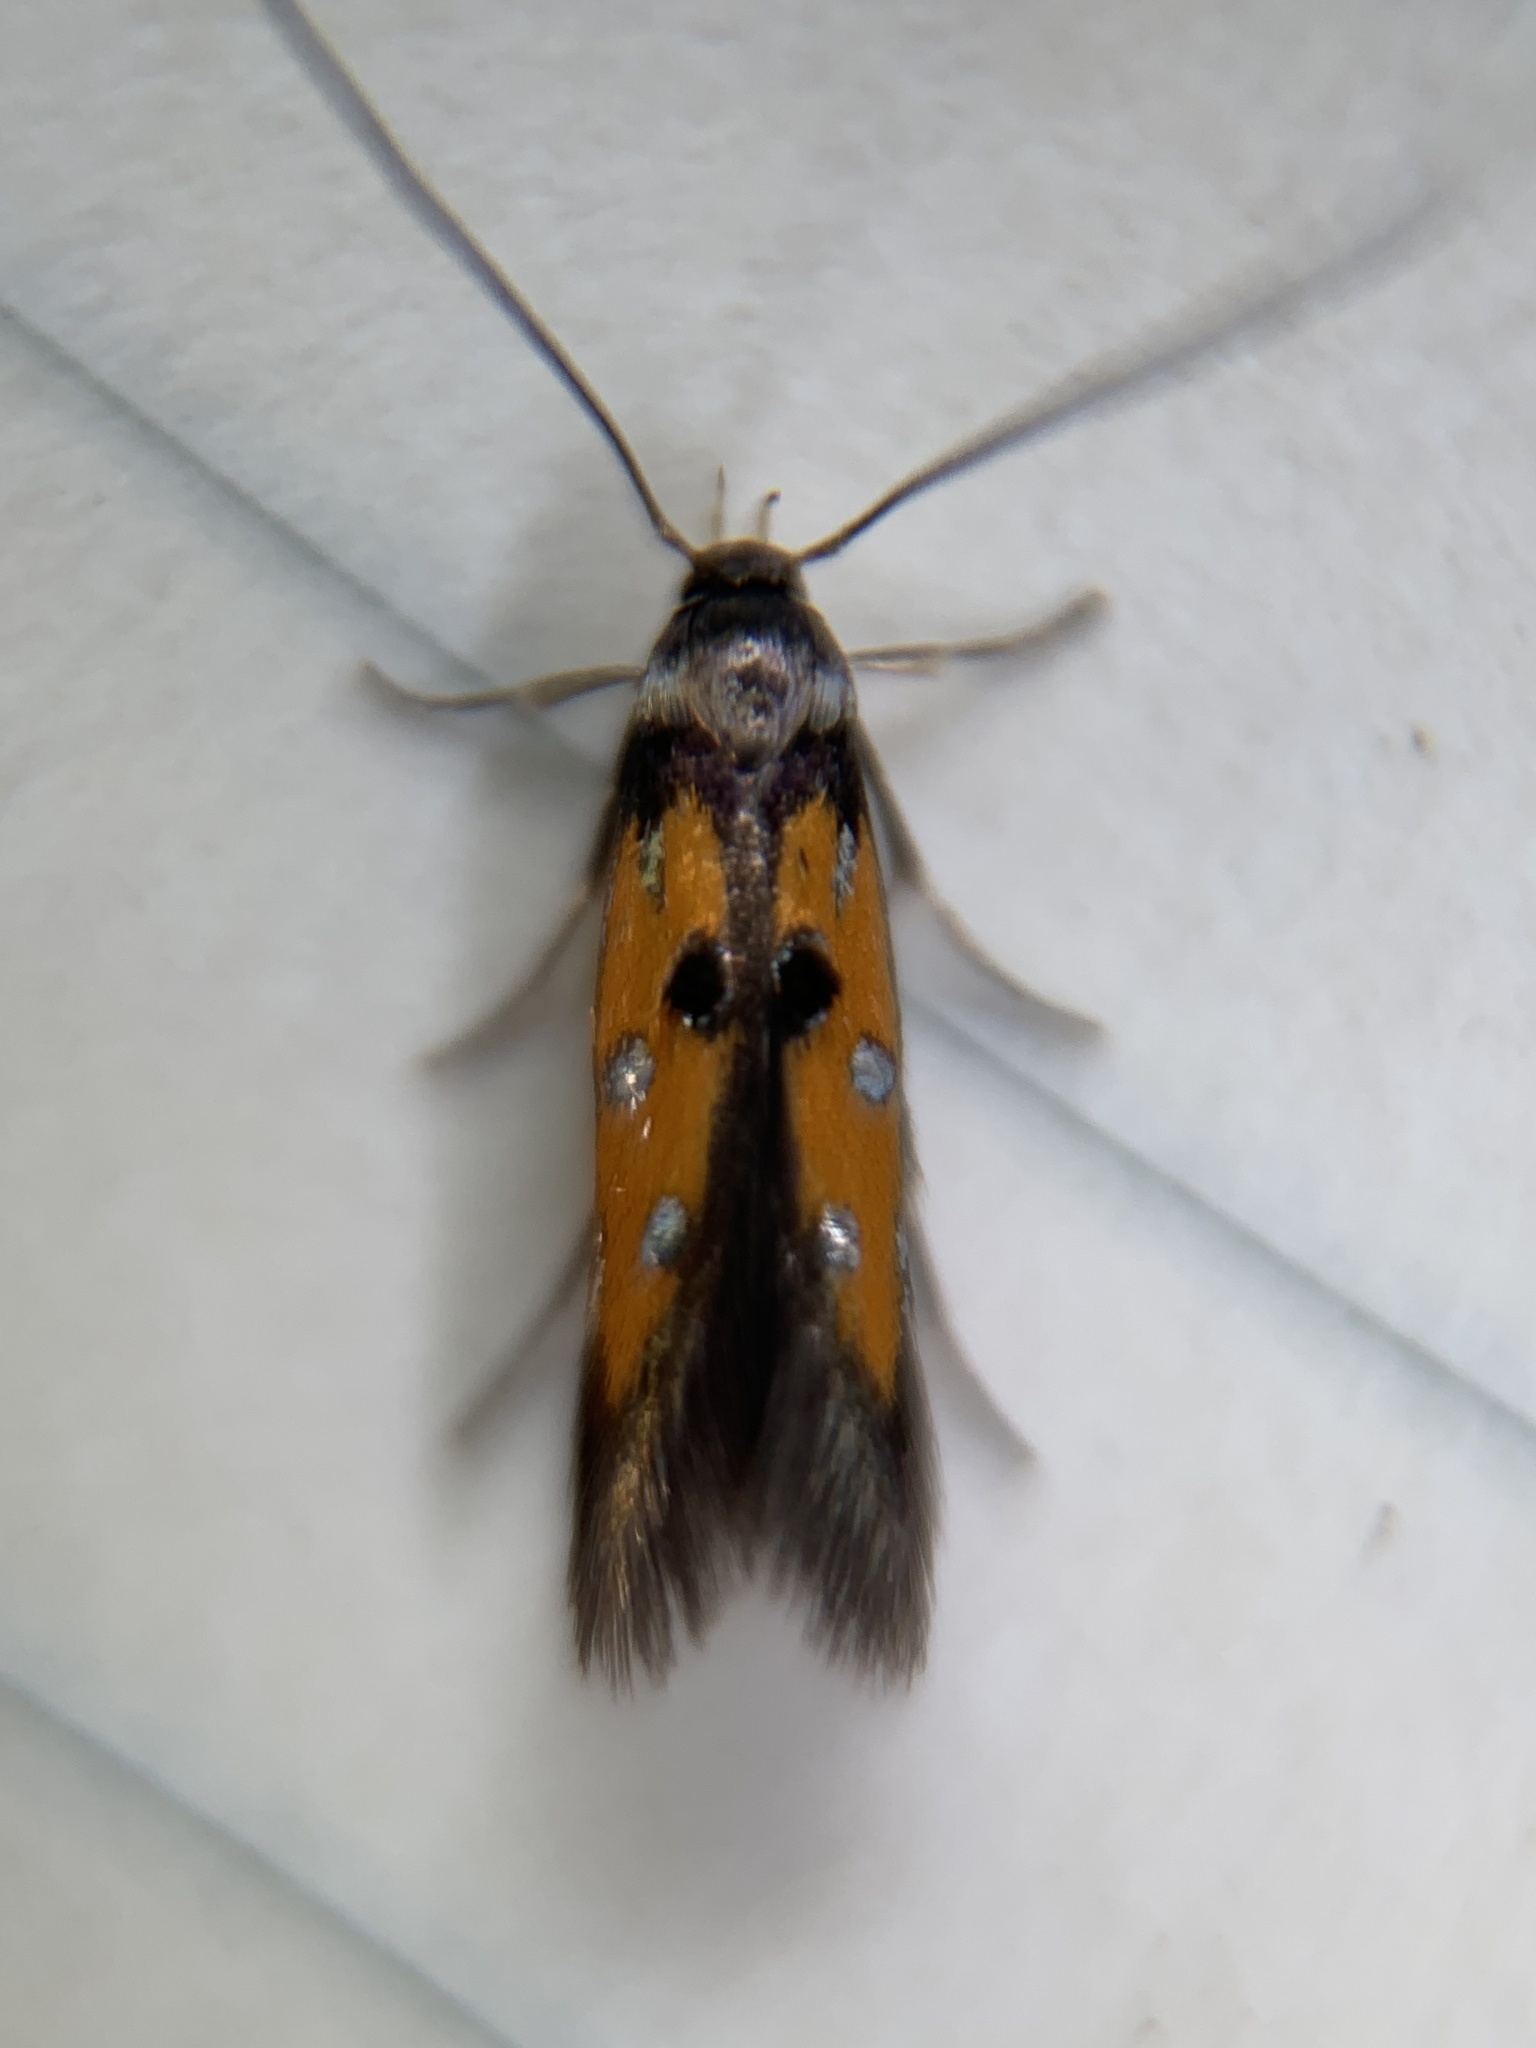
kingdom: Animalia
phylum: Arthropoda
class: Insecta
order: Lepidoptera
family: Elachistidae
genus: Chrysoclista
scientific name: Chrysoclista linneela
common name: Lime cosmet
